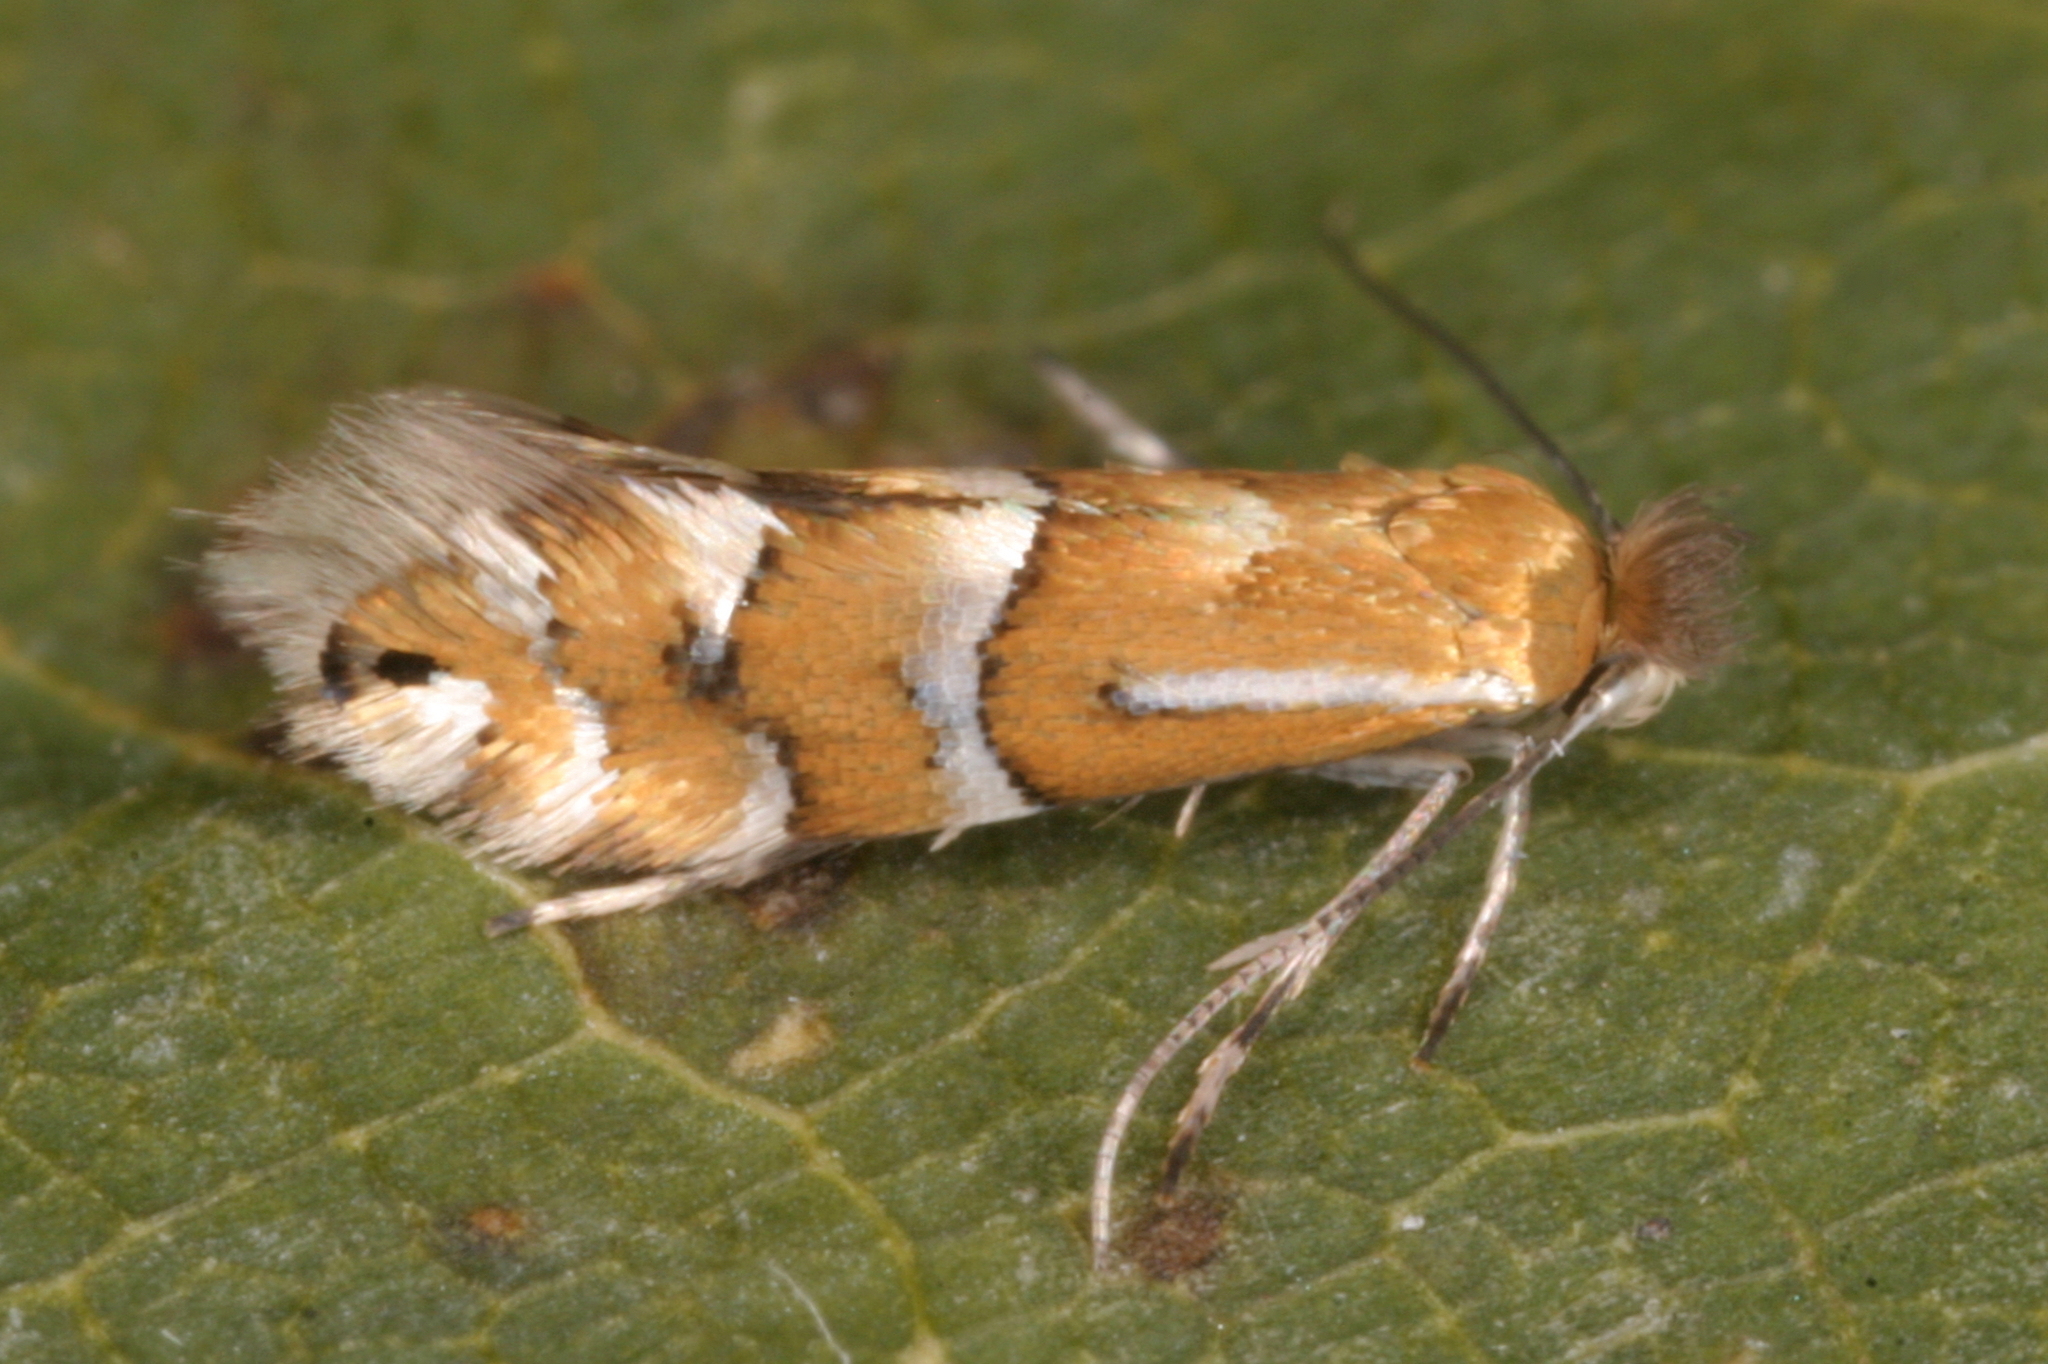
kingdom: Animalia
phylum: Arthropoda
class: Insecta
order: Lepidoptera
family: Gracillariidae
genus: Phyllonorycter
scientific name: Phyllonorycter ulmifoliella
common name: Red birch midget
